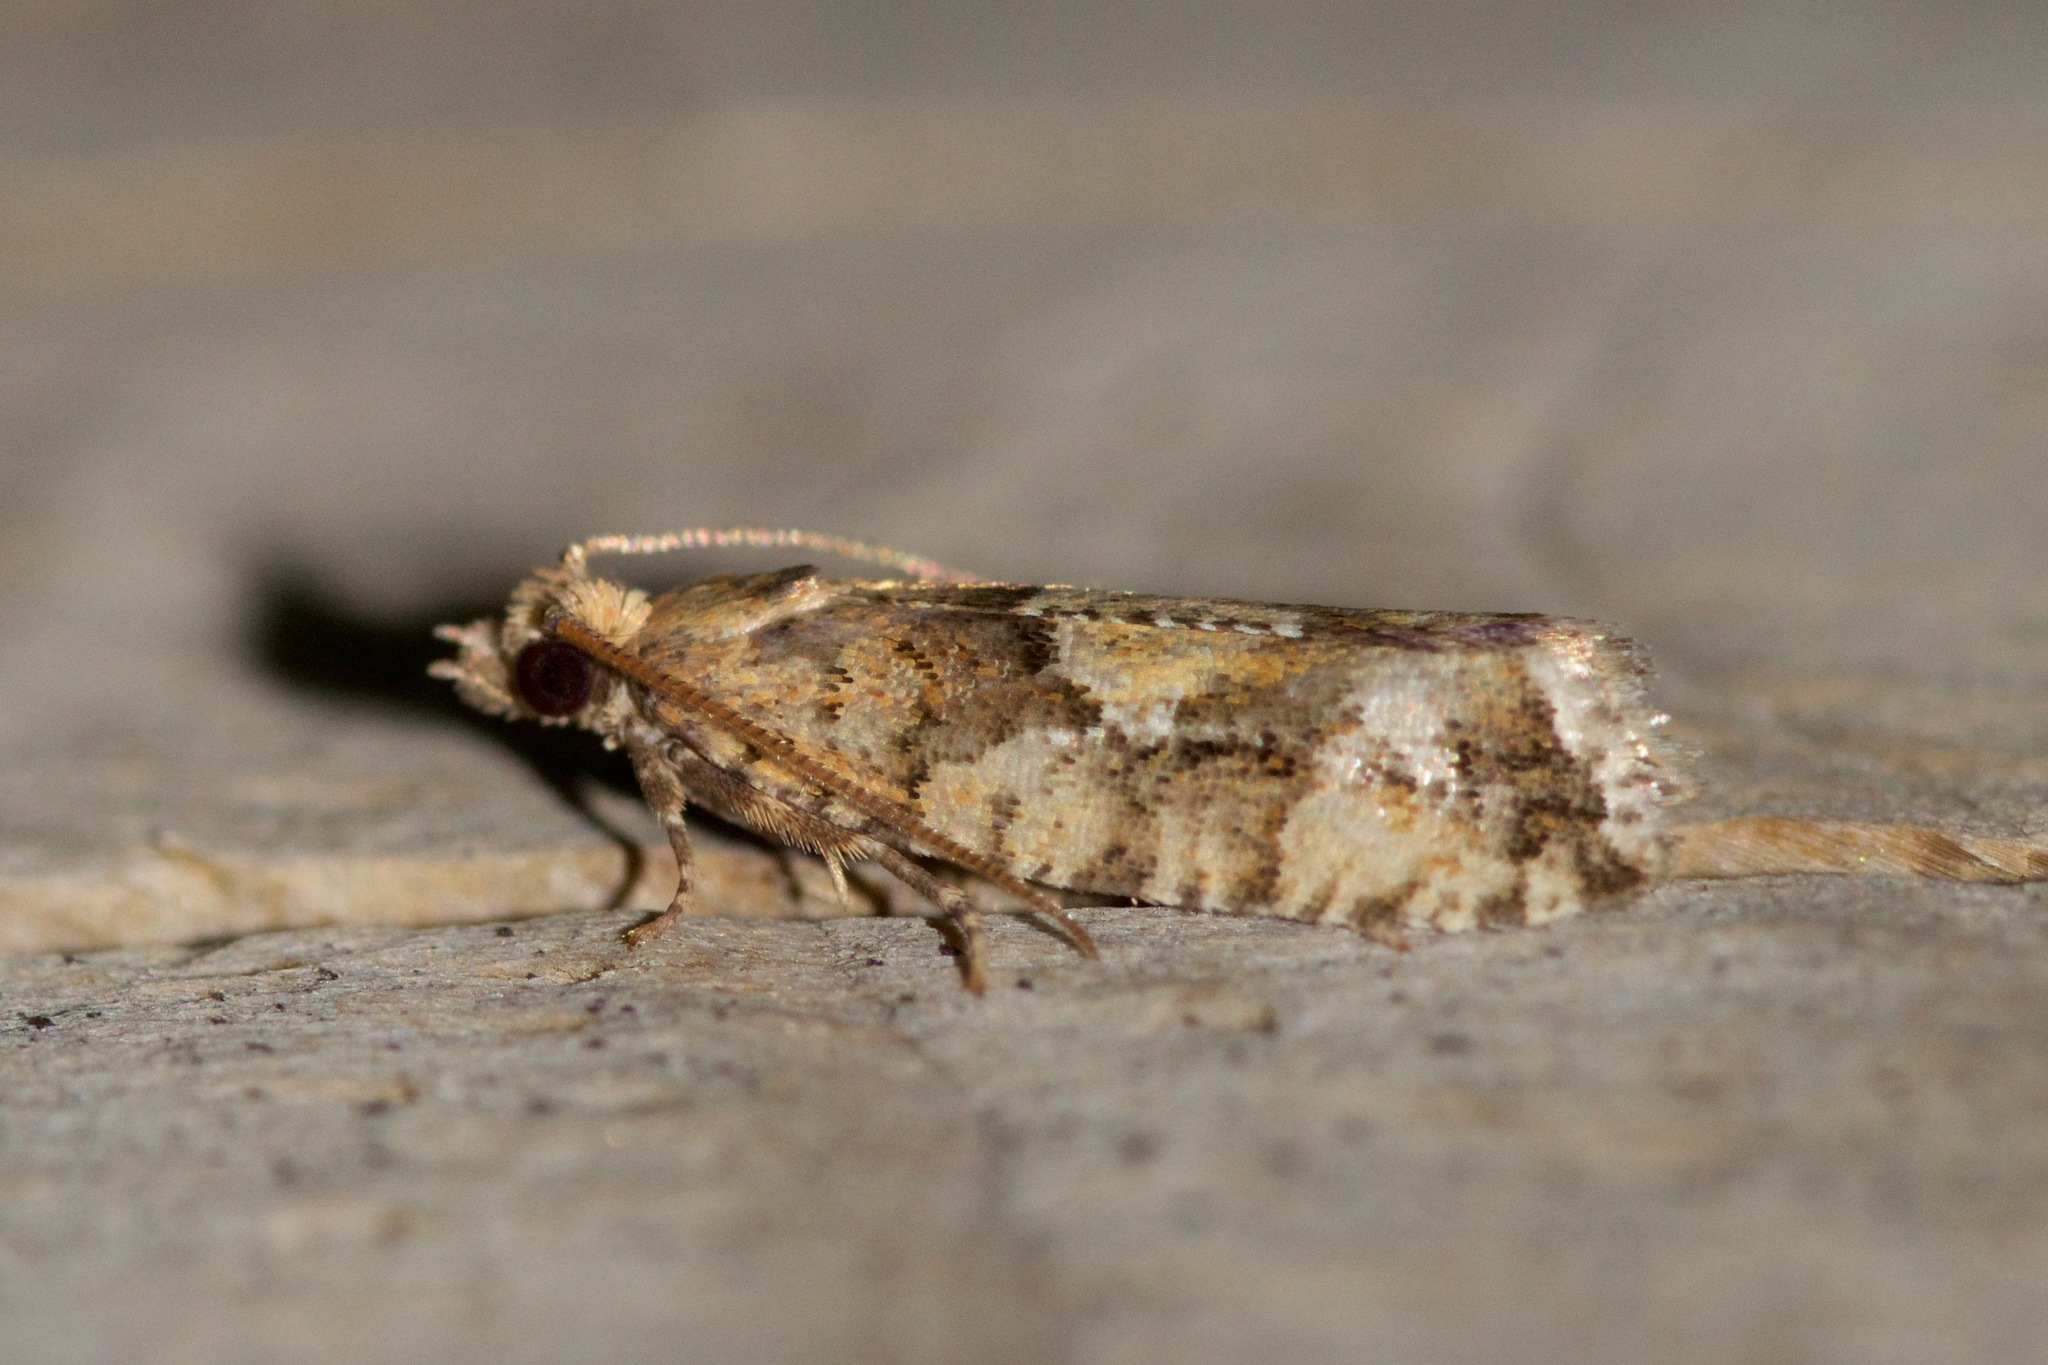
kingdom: Animalia
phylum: Arthropoda
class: Insecta
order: Lepidoptera
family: Tortricidae
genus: Zeiraphera
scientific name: Zeiraphera canadensis
